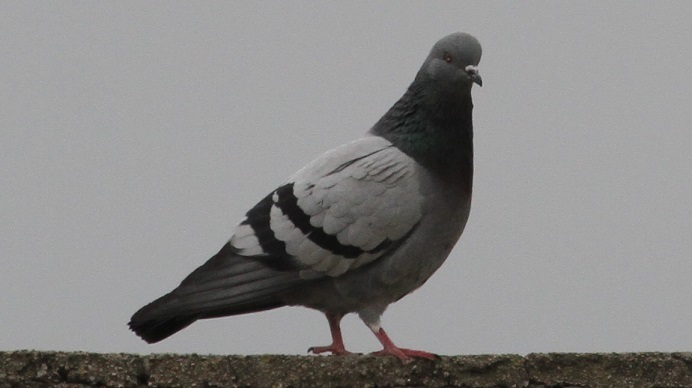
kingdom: Animalia
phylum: Chordata
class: Aves
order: Columbiformes
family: Columbidae
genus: Columba
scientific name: Columba livia
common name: Rock pigeon
